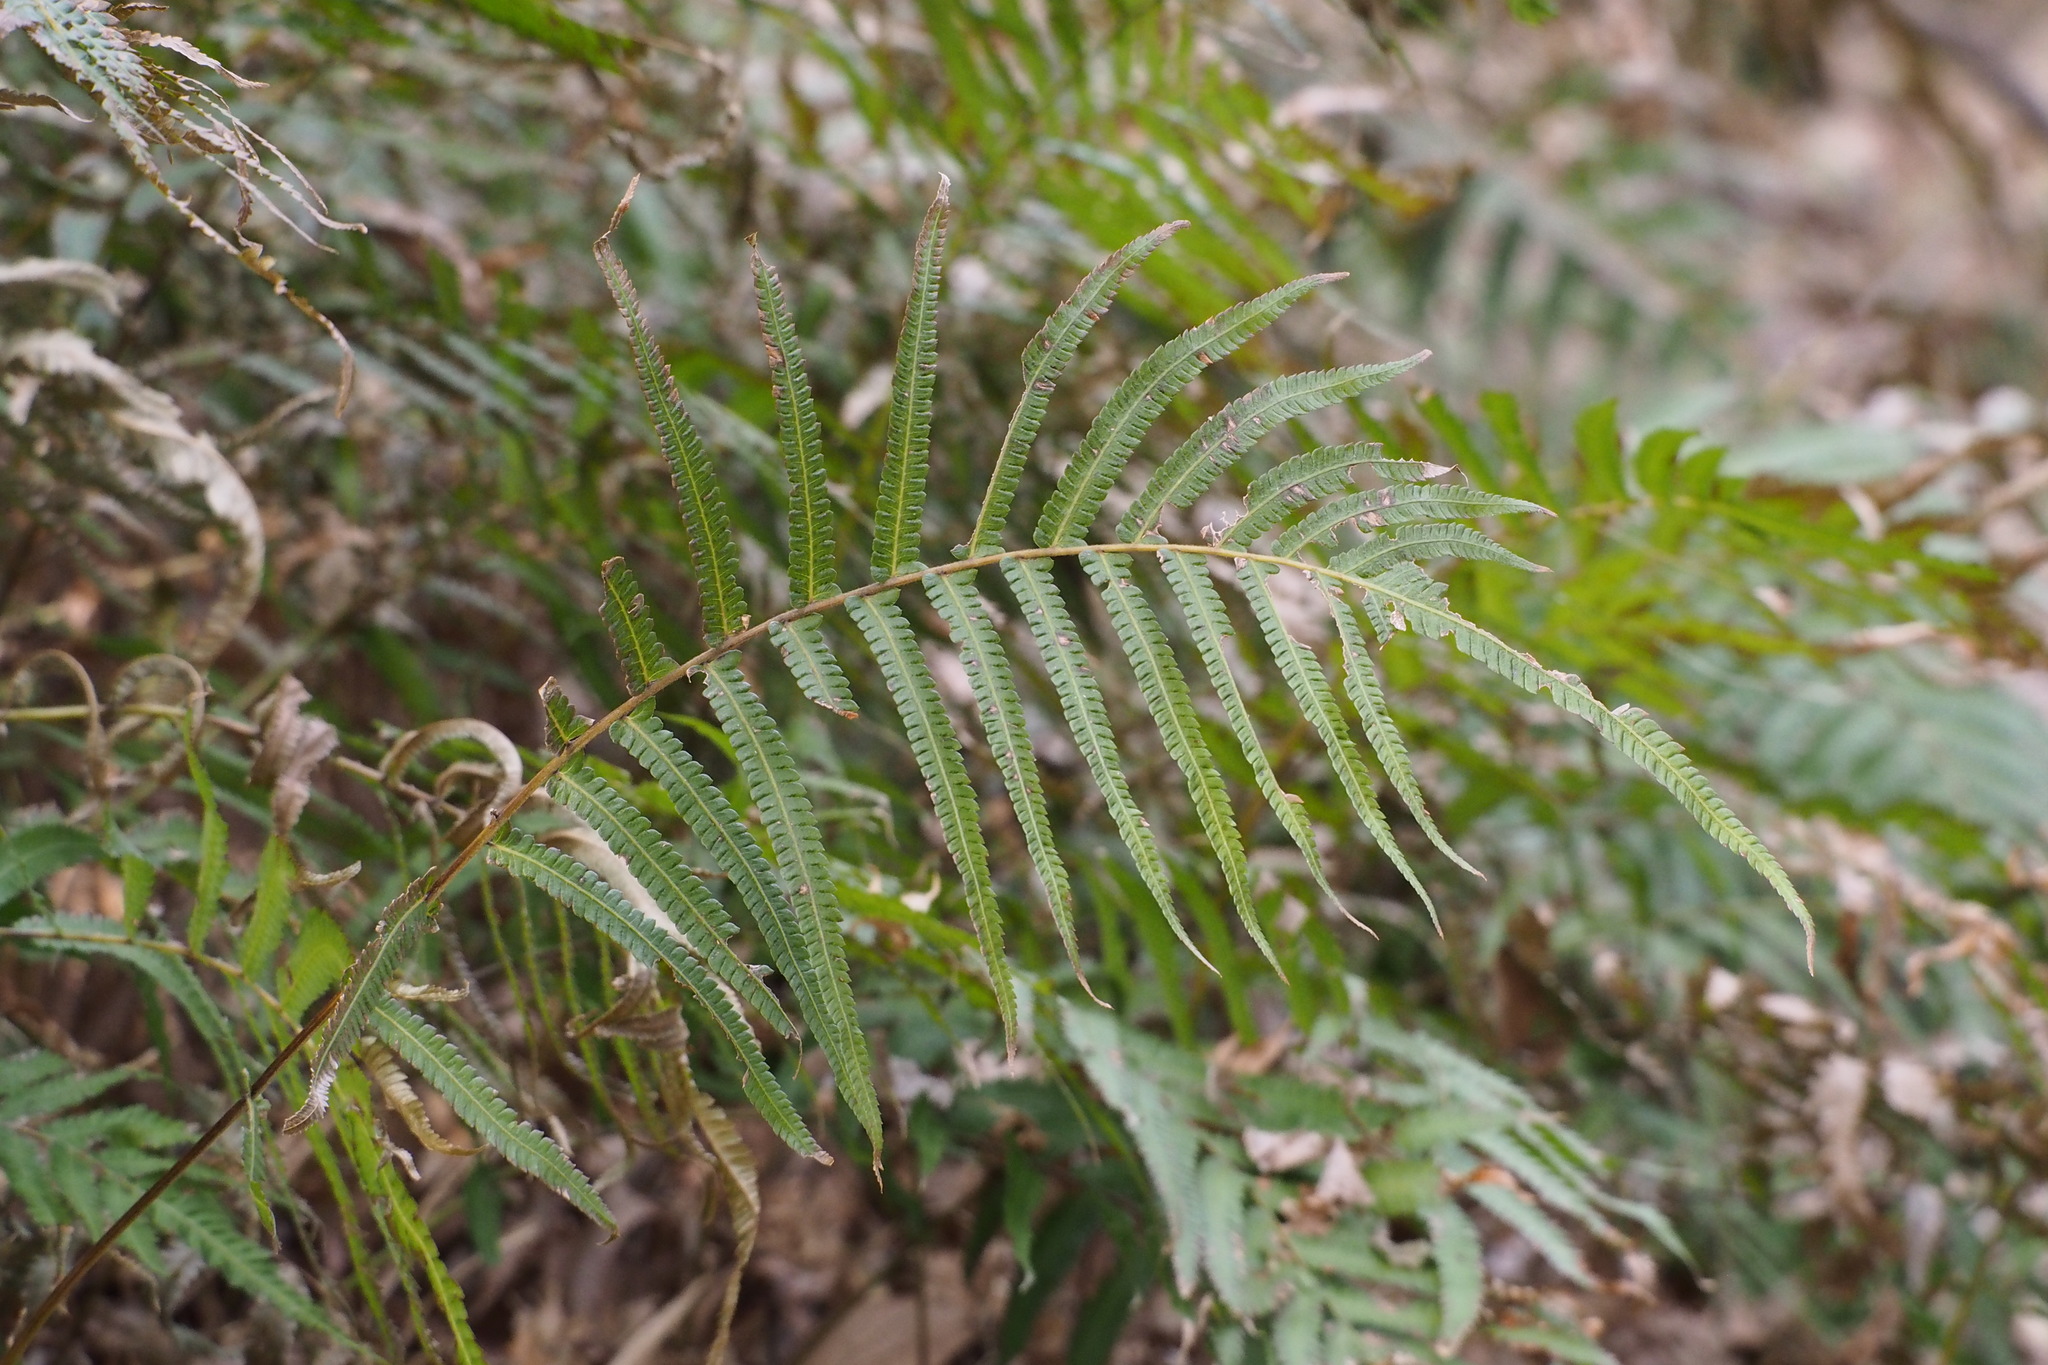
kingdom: Plantae
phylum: Tracheophyta
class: Polypodiopsida
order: Polypodiales
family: Thelypteridaceae
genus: Christella
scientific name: Christella acuminata
